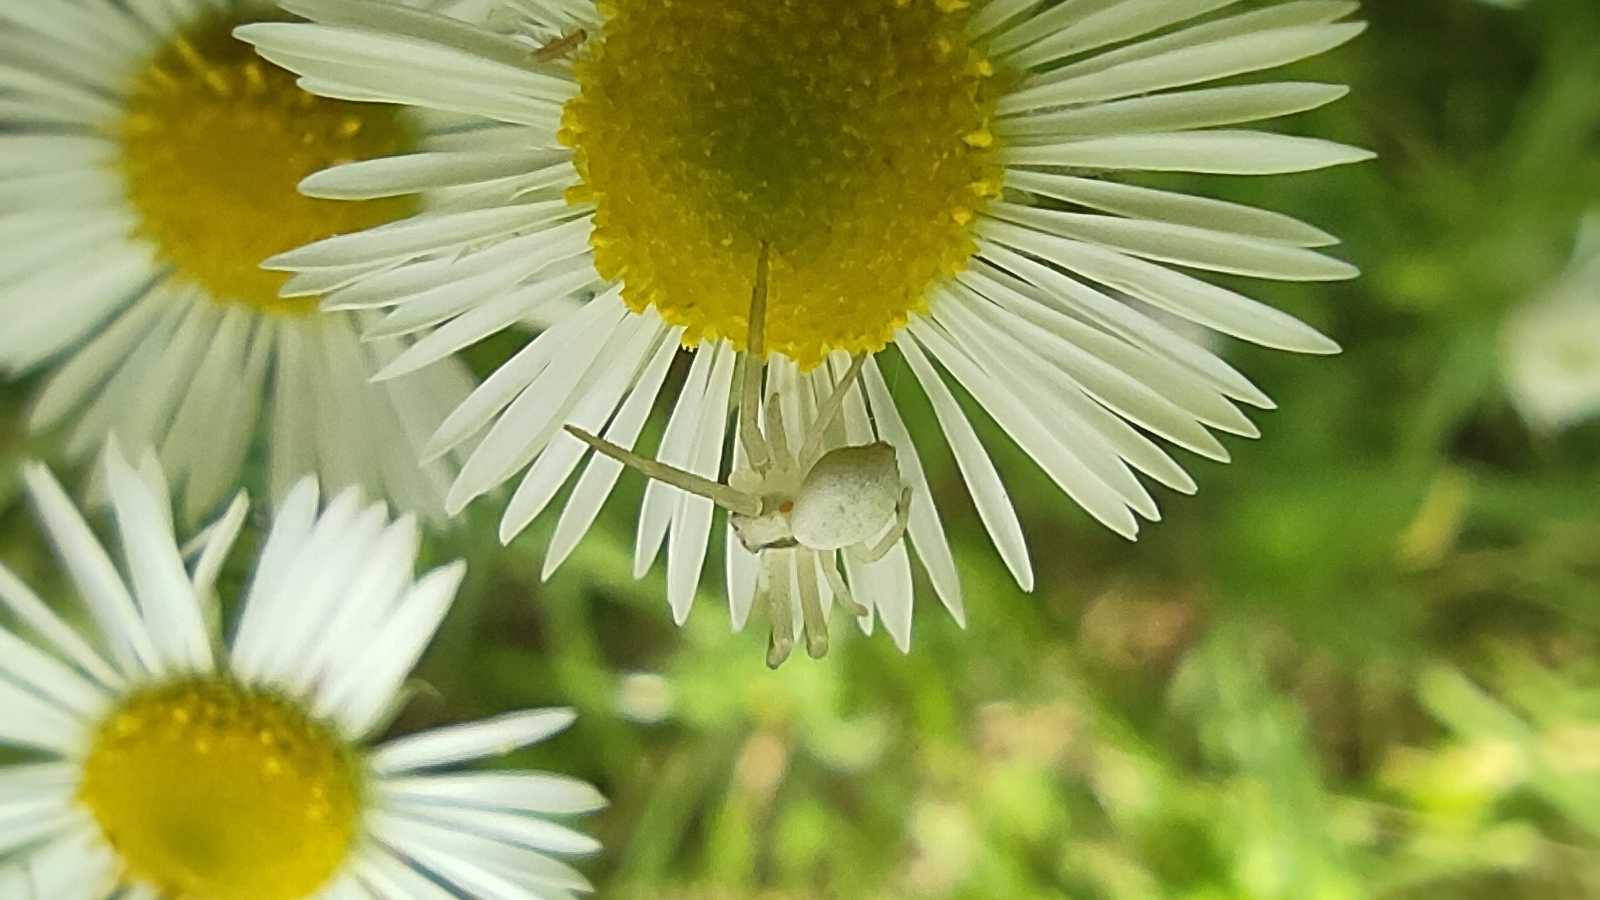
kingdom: Animalia
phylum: Arthropoda
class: Arachnida
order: Araneae
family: Thomisidae
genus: Misumena
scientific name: Misumena vatia
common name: Goldenrod crab spider
